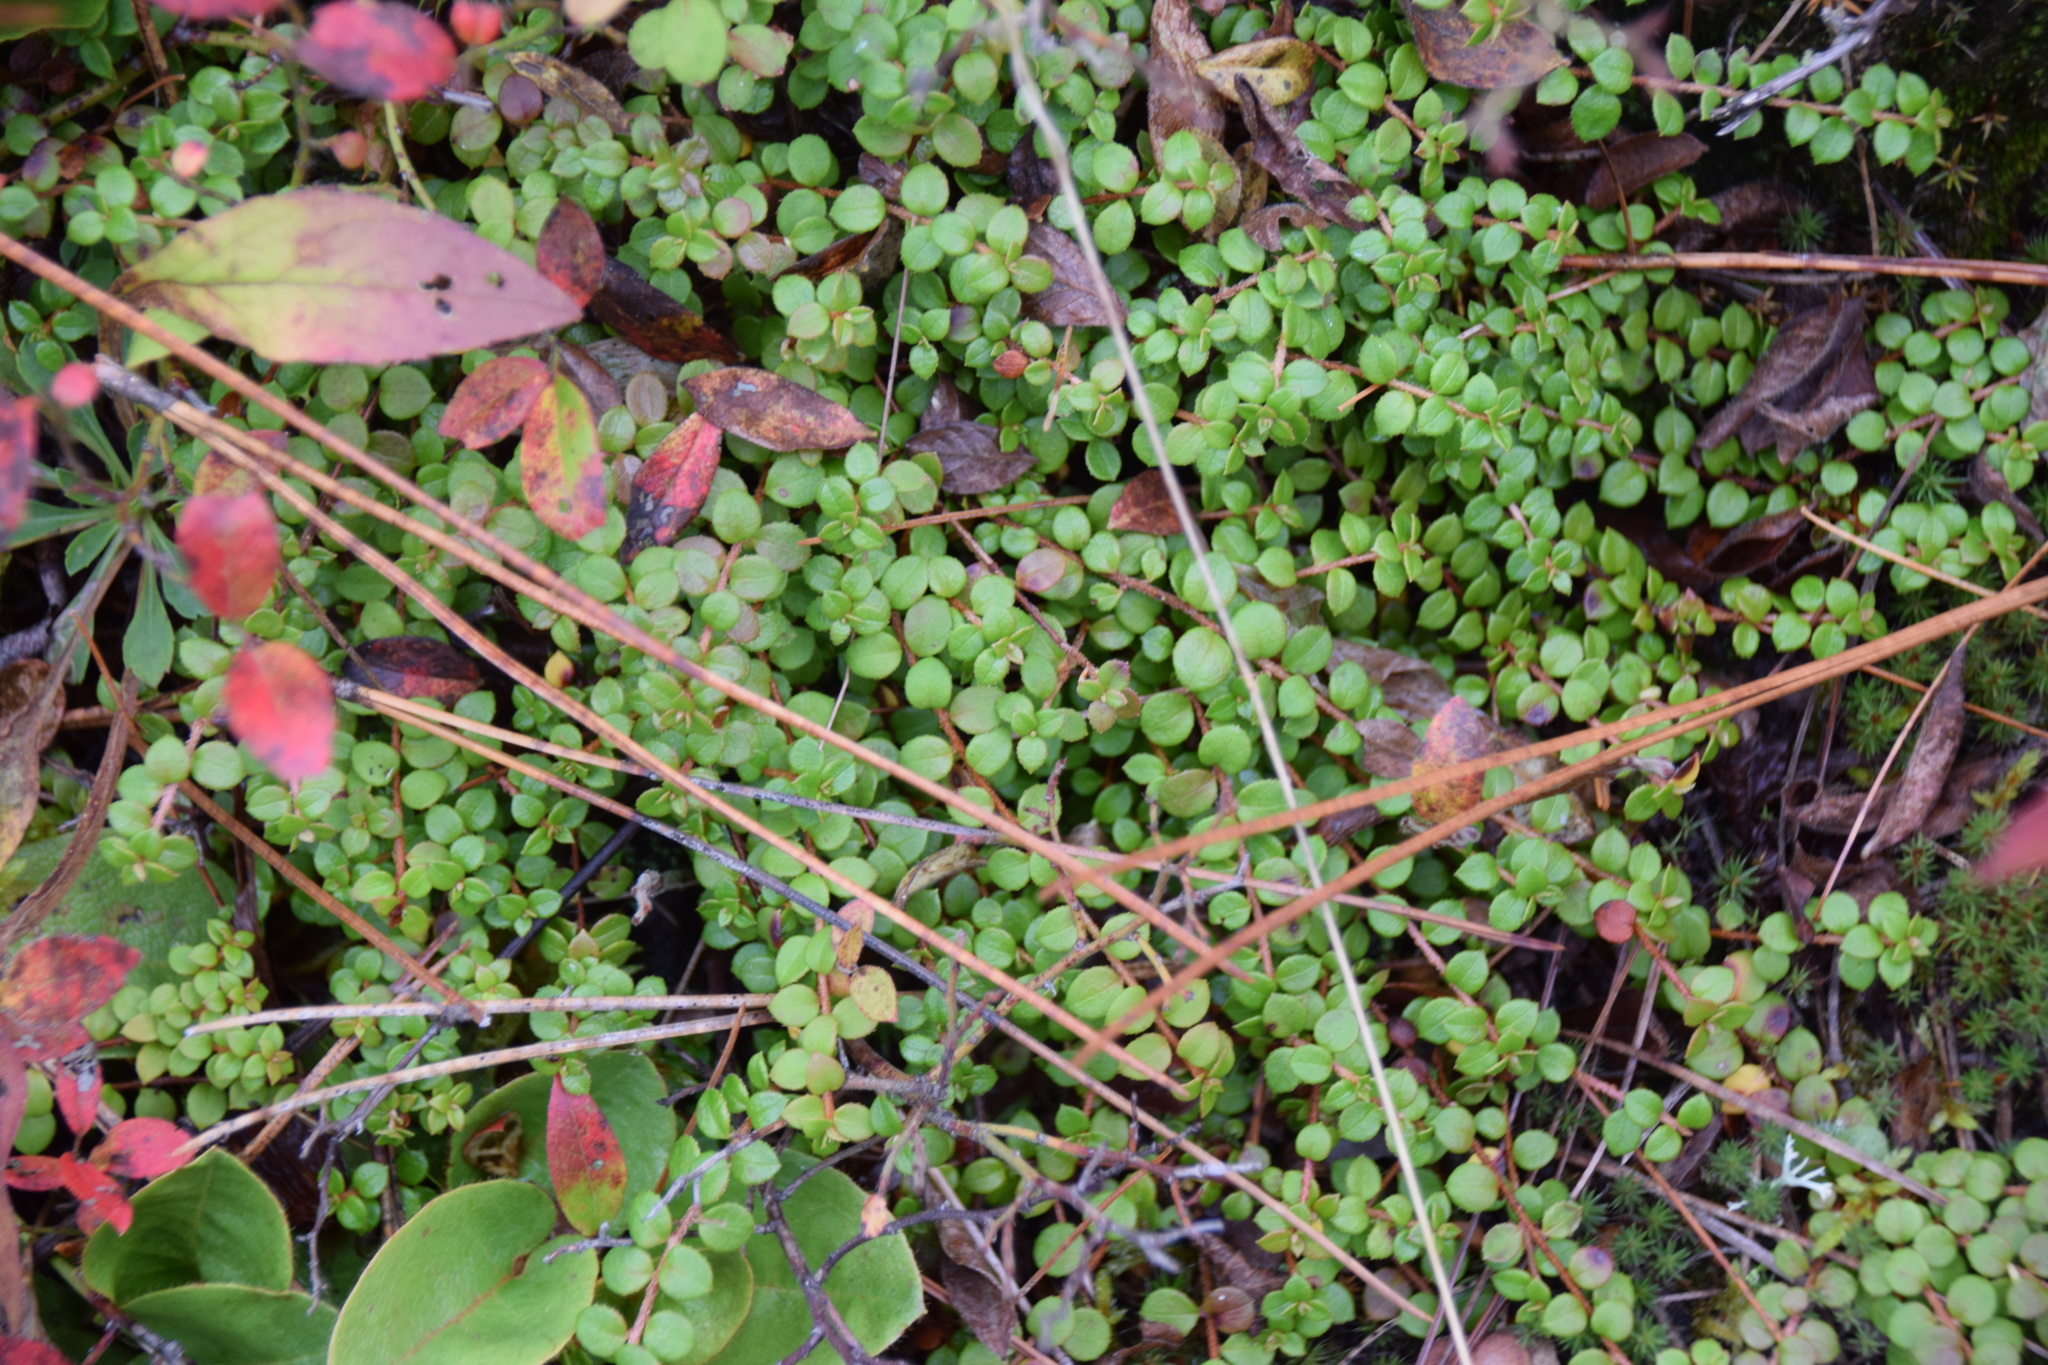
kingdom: Plantae
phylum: Tracheophyta
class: Magnoliopsida
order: Ericales
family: Ericaceae
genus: Gaultheria
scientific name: Gaultheria hispidula
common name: Cancer wintergreen
